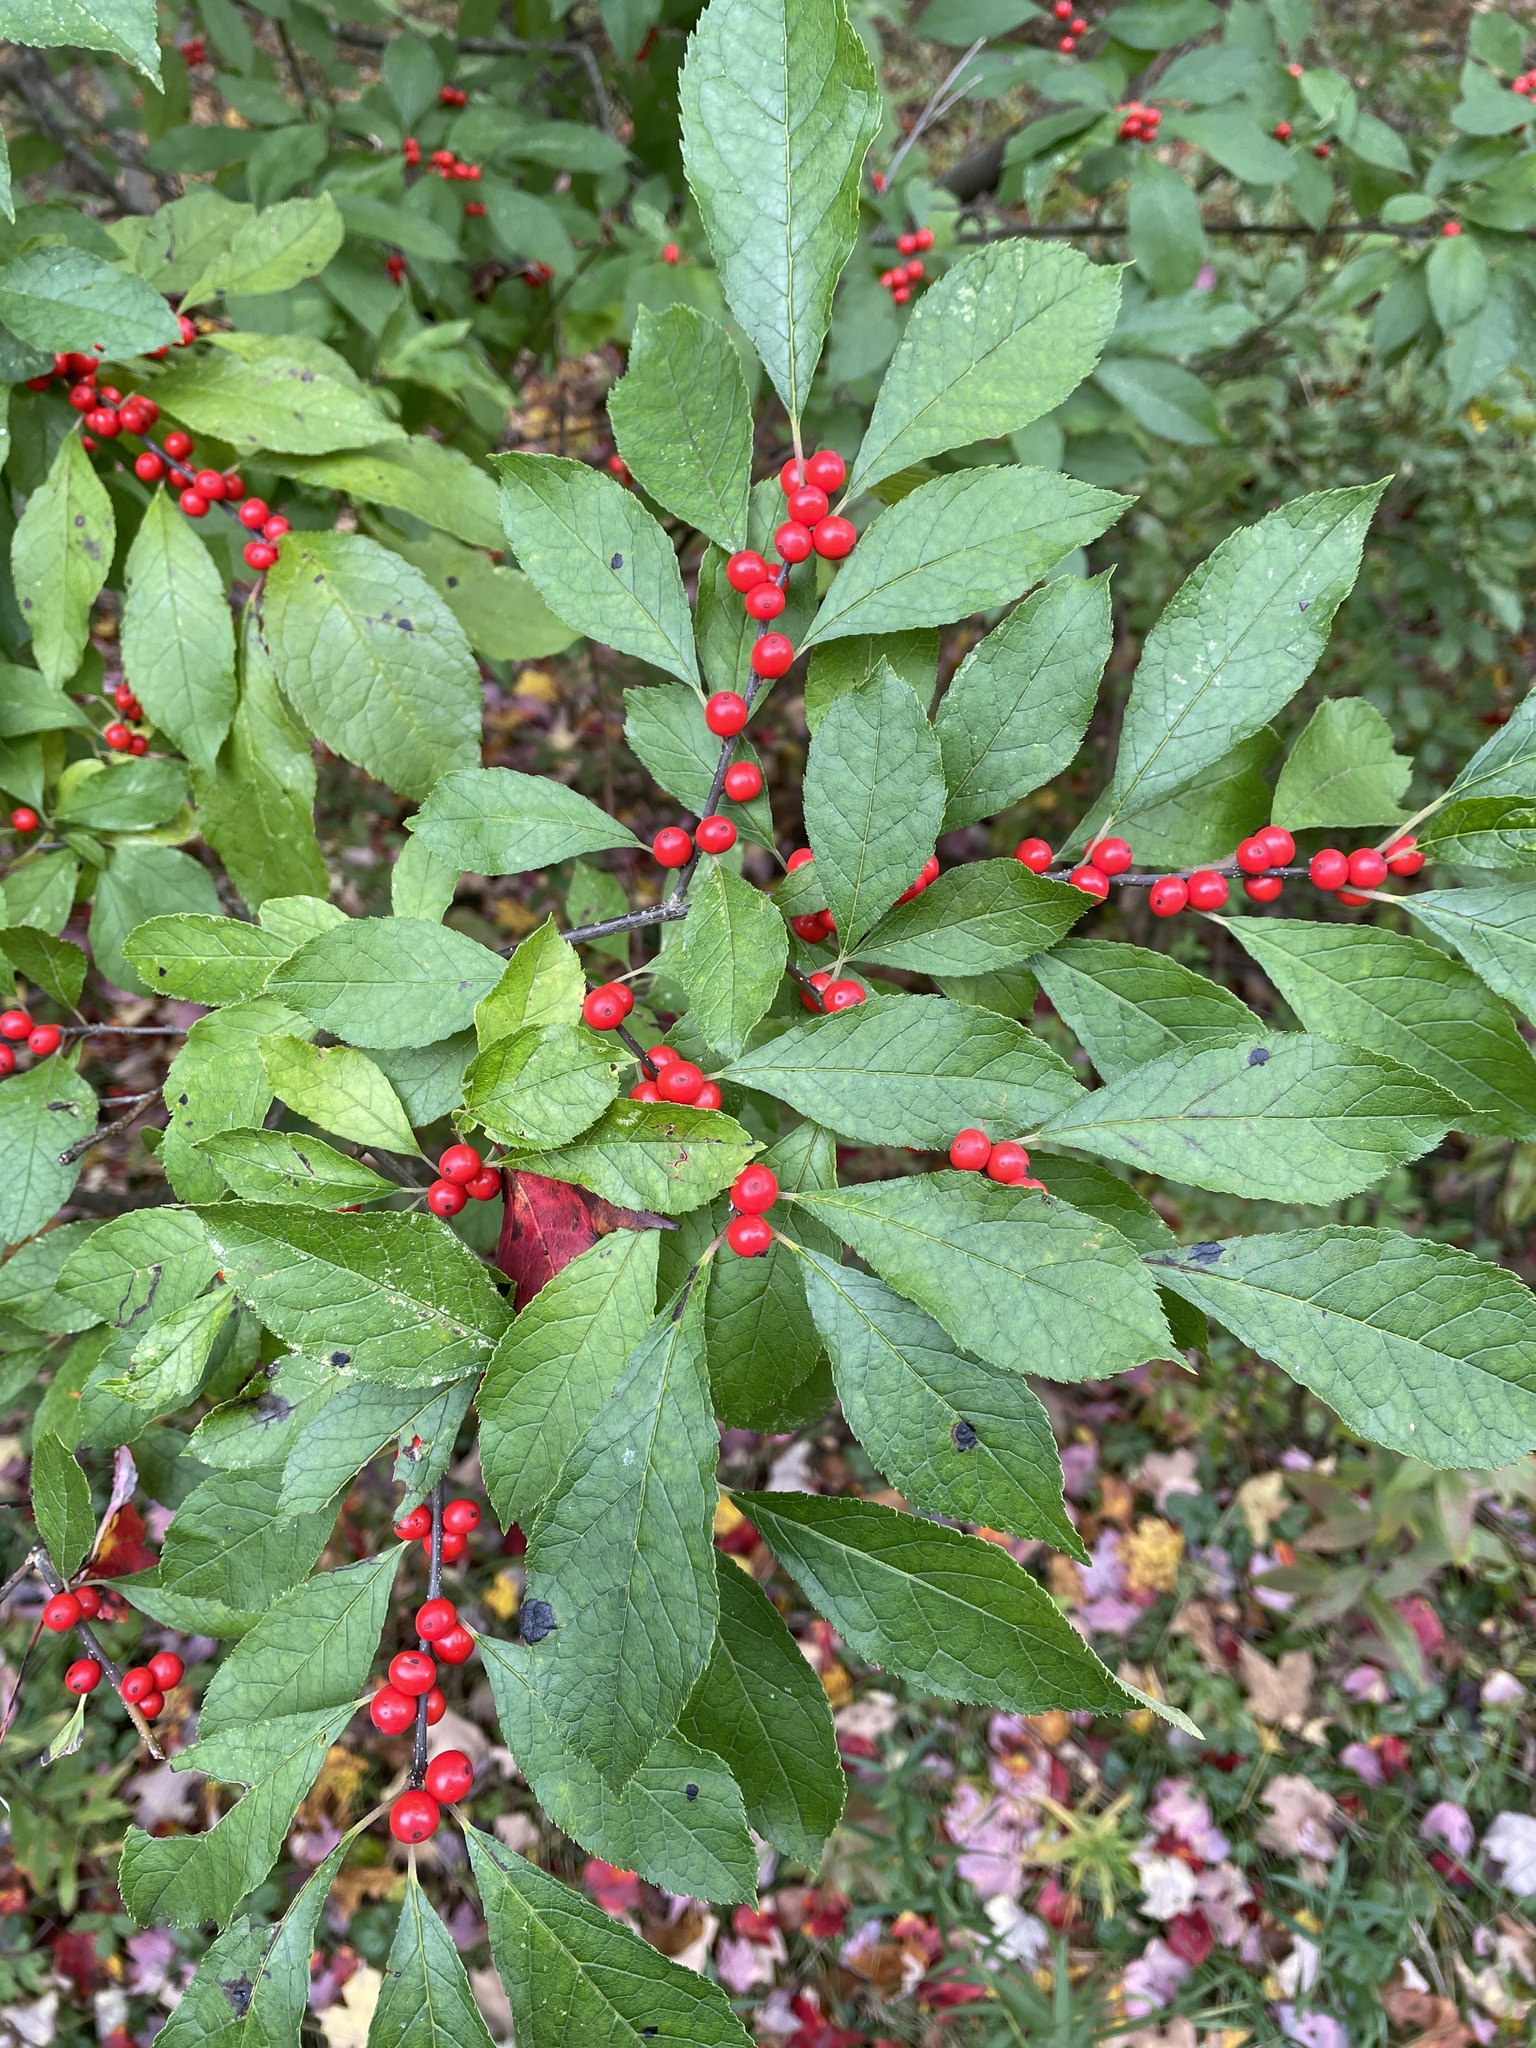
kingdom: Plantae
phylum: Tracheophyta
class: Magnoliopsida
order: Aquifoliales
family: Aquifoliaceae
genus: Ilex
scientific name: Ilex verticillata
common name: Virginia winterberry
